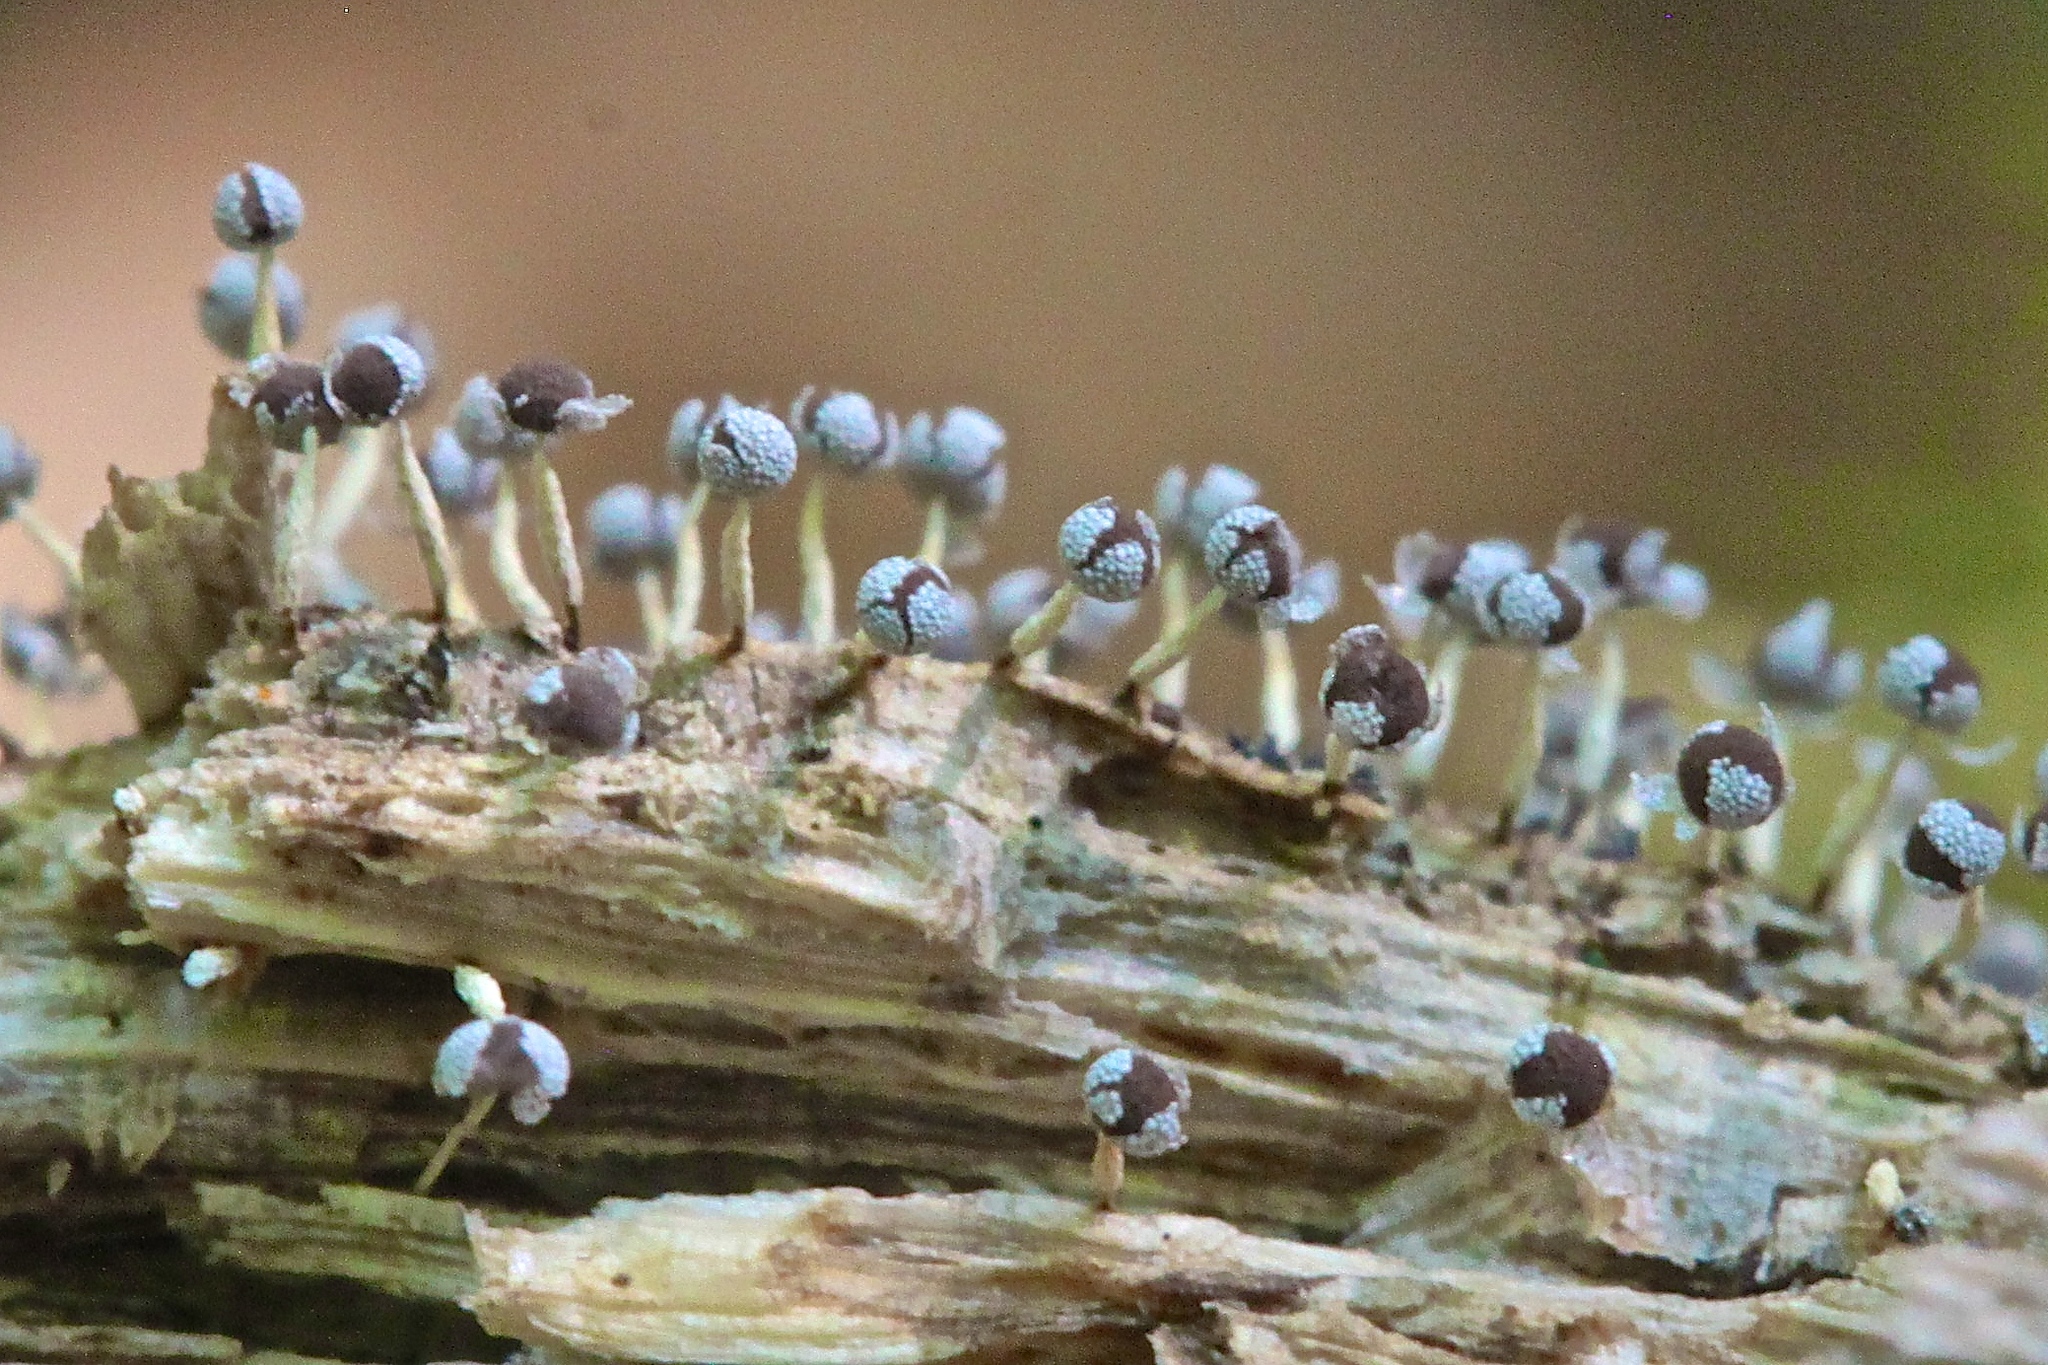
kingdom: Protozoa
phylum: Mycetozoa
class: Myxomycetes
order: Physarales
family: Physaraceae
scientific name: Physaraceae
